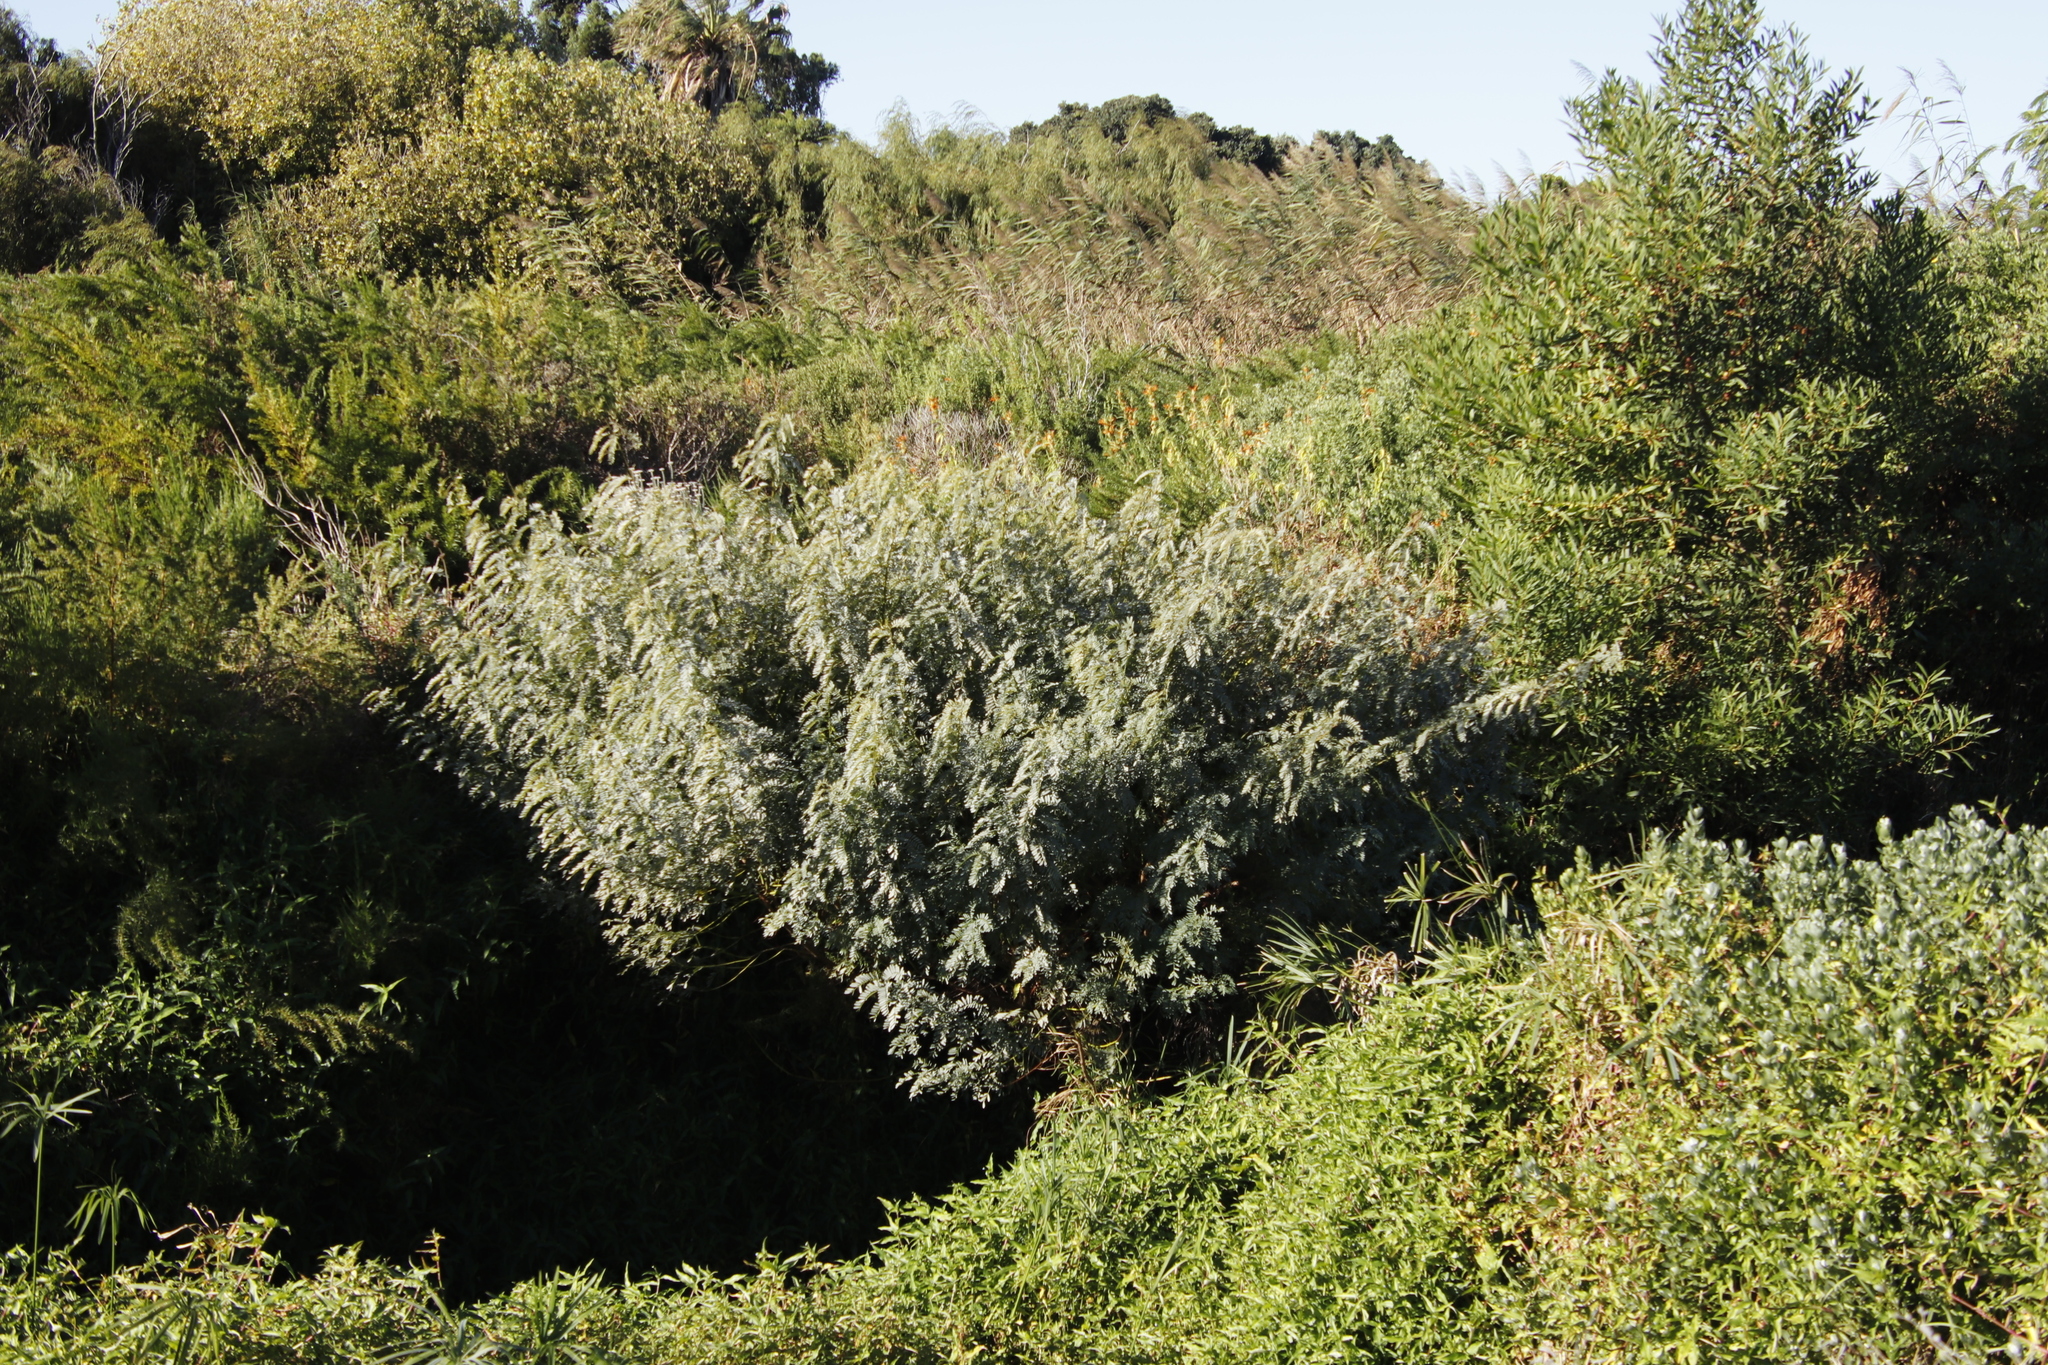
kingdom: Plantae
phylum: Tracheophyta
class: Magnoliopsida
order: Fabales
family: Fabaceae
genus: Sesbania
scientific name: Sesbania punicea
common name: Rattlebox
